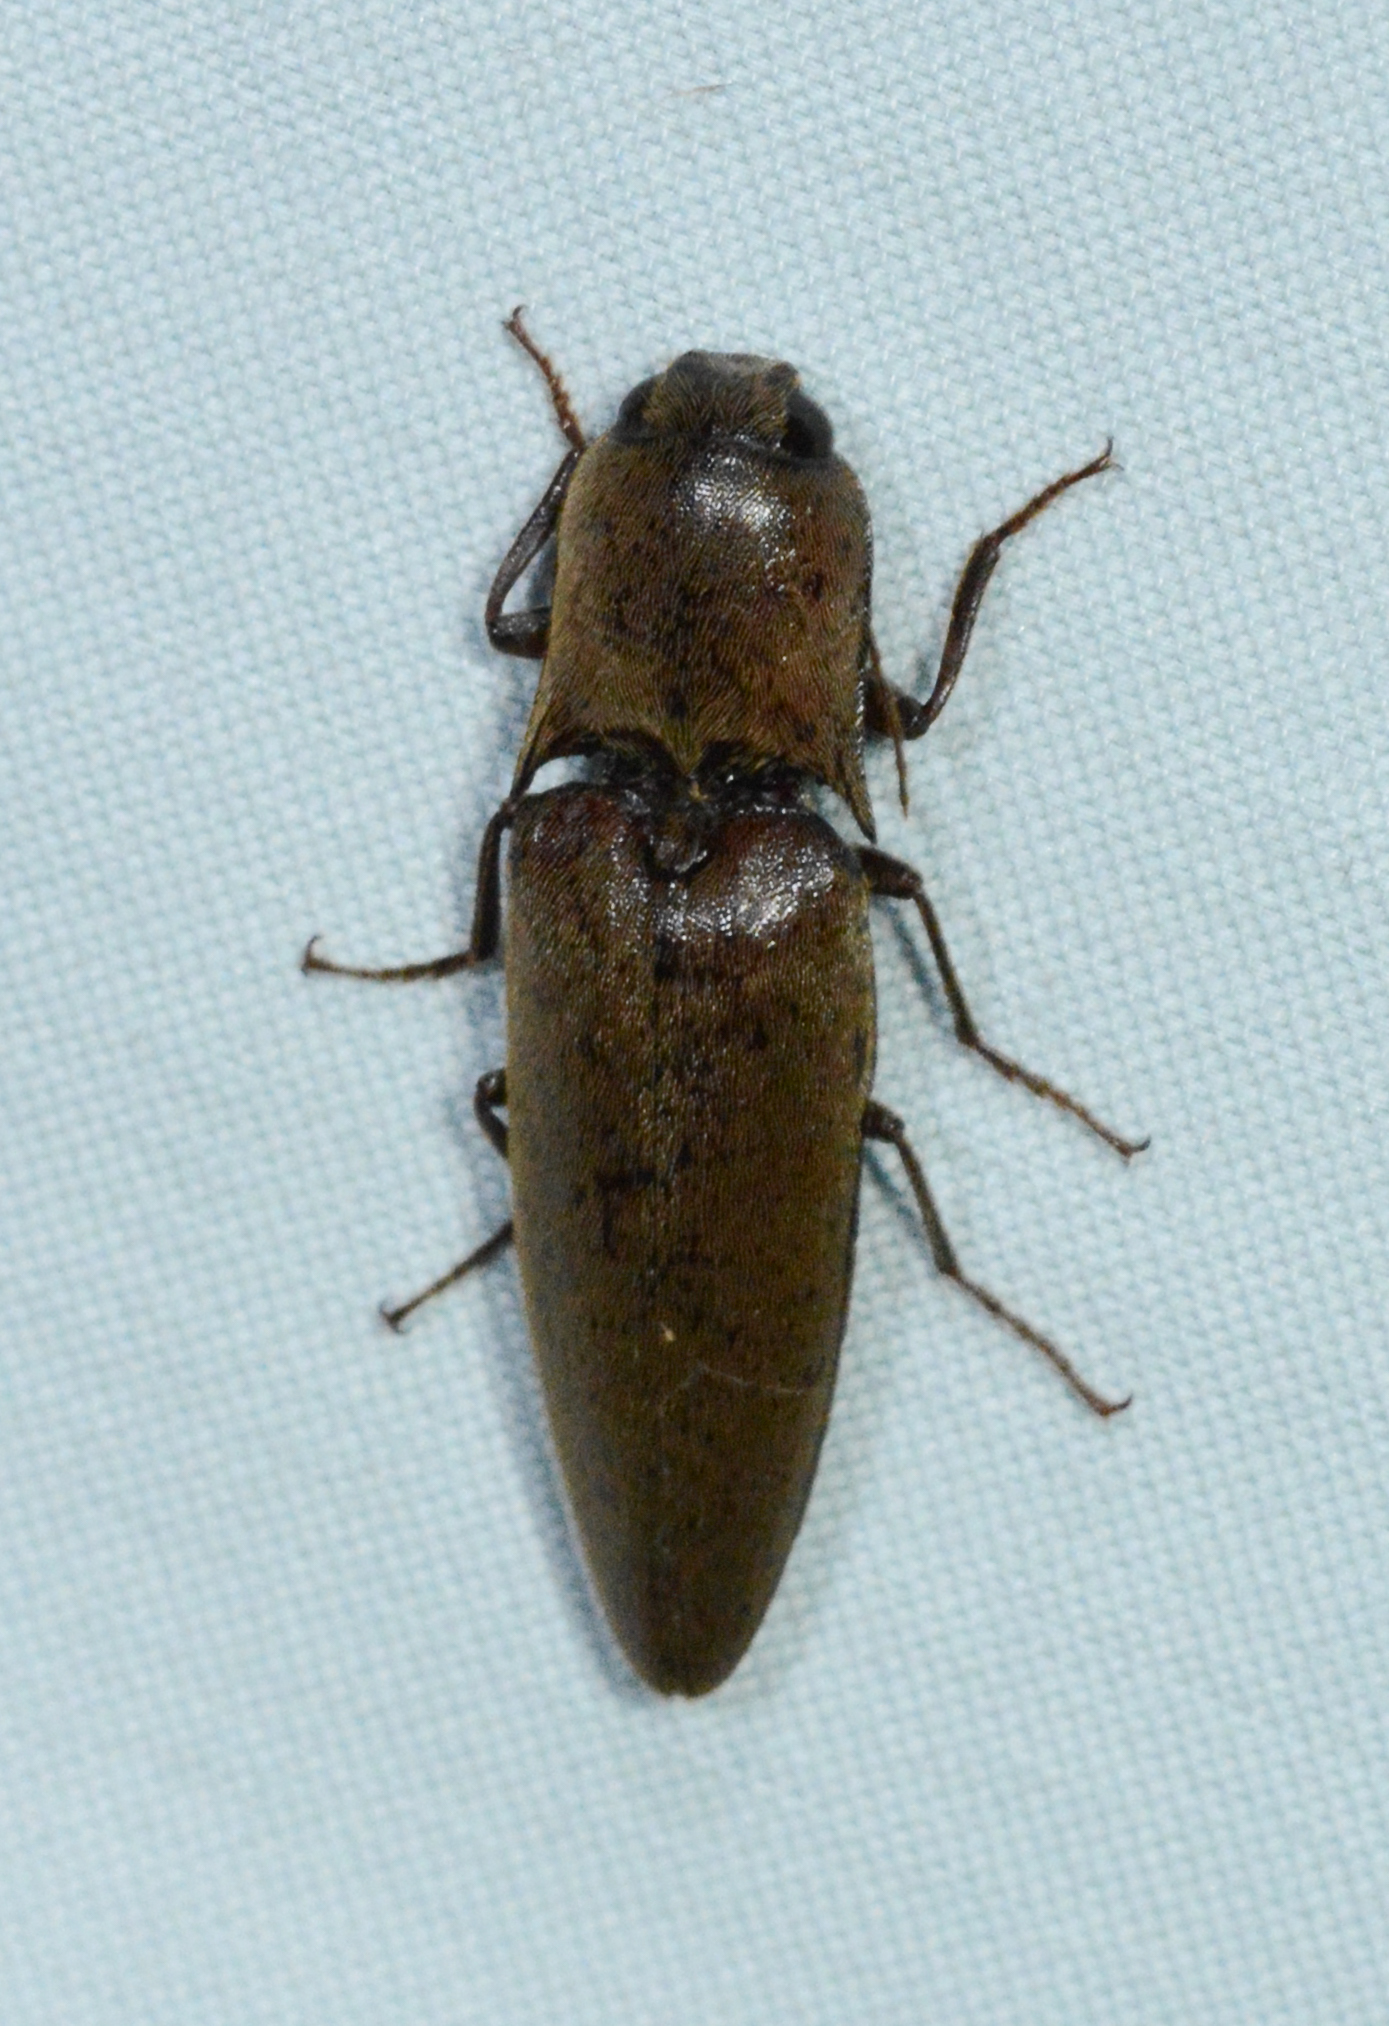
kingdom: Animalia
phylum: Arthropoda
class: Insecta
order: Coleoptera
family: Elateridae
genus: Orthostethus
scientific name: Orthostethus infuscatus
